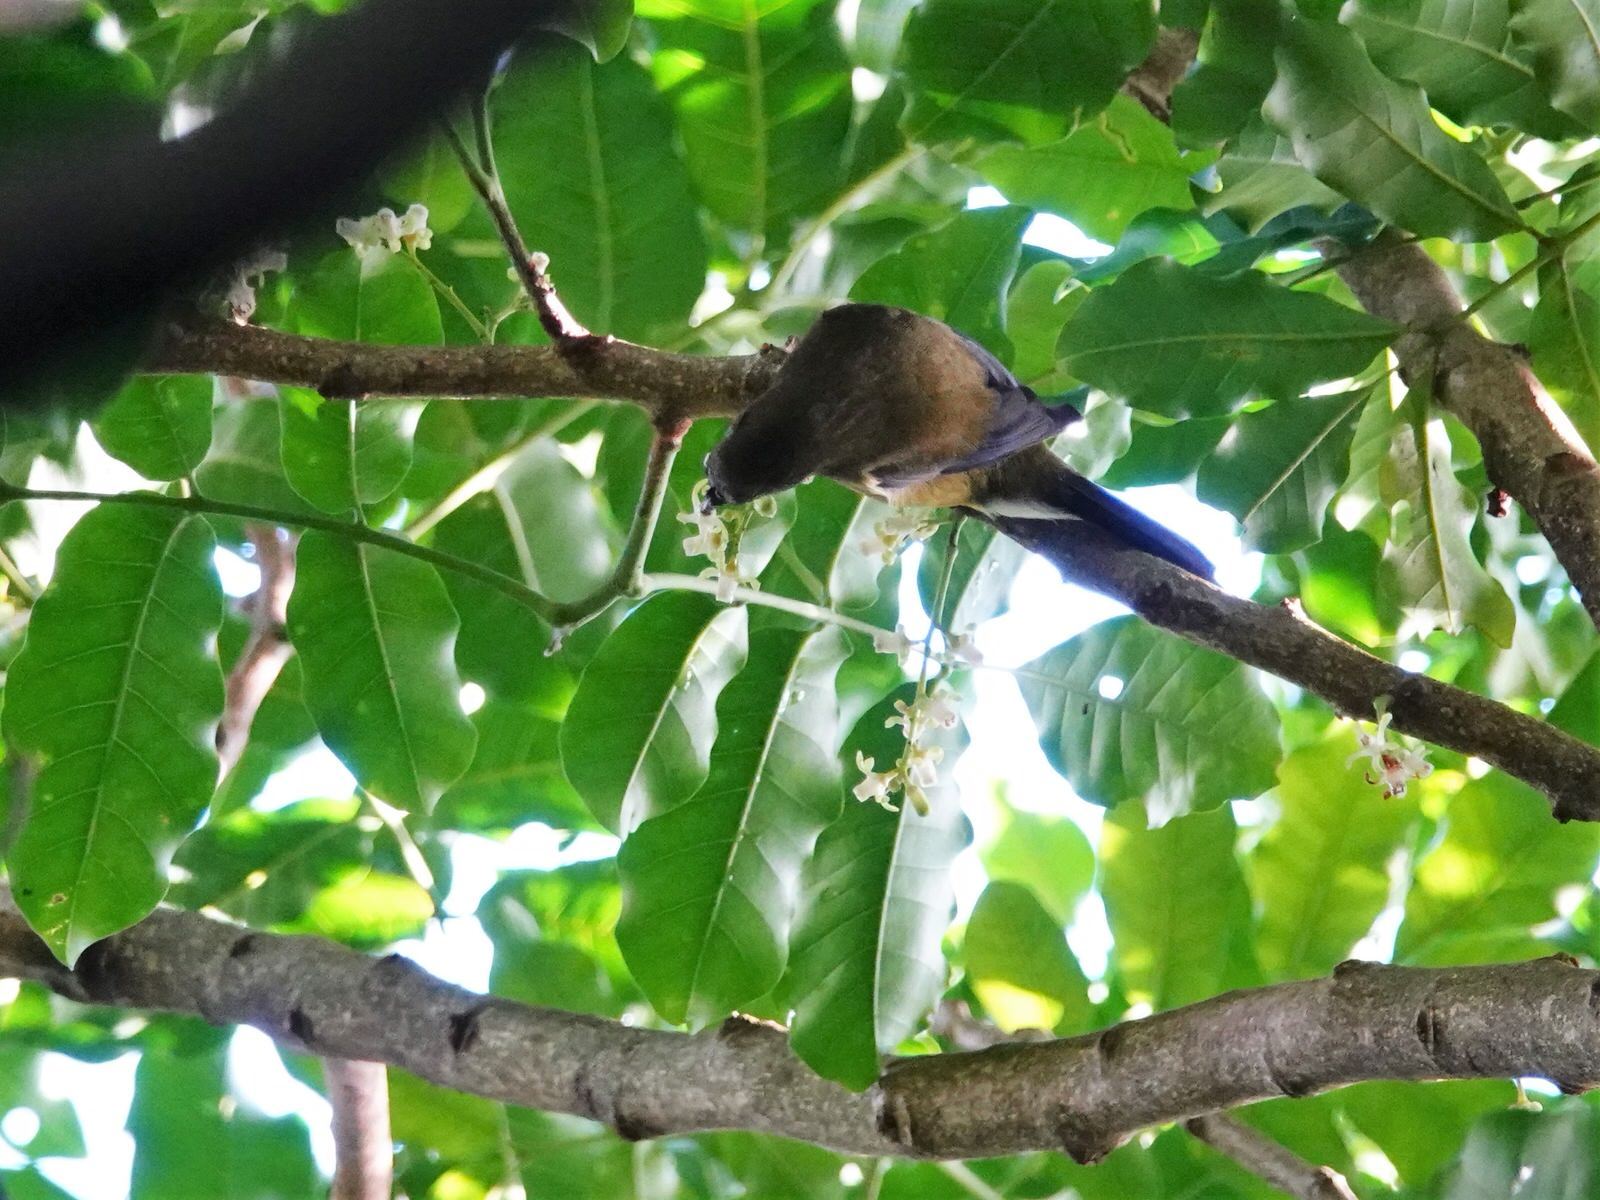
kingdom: Animalia
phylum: Chordata
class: Aves
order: Passeriformes
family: Meliphagidae
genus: Anthornis
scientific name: Anthornis melanura
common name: New zealand bellbird
